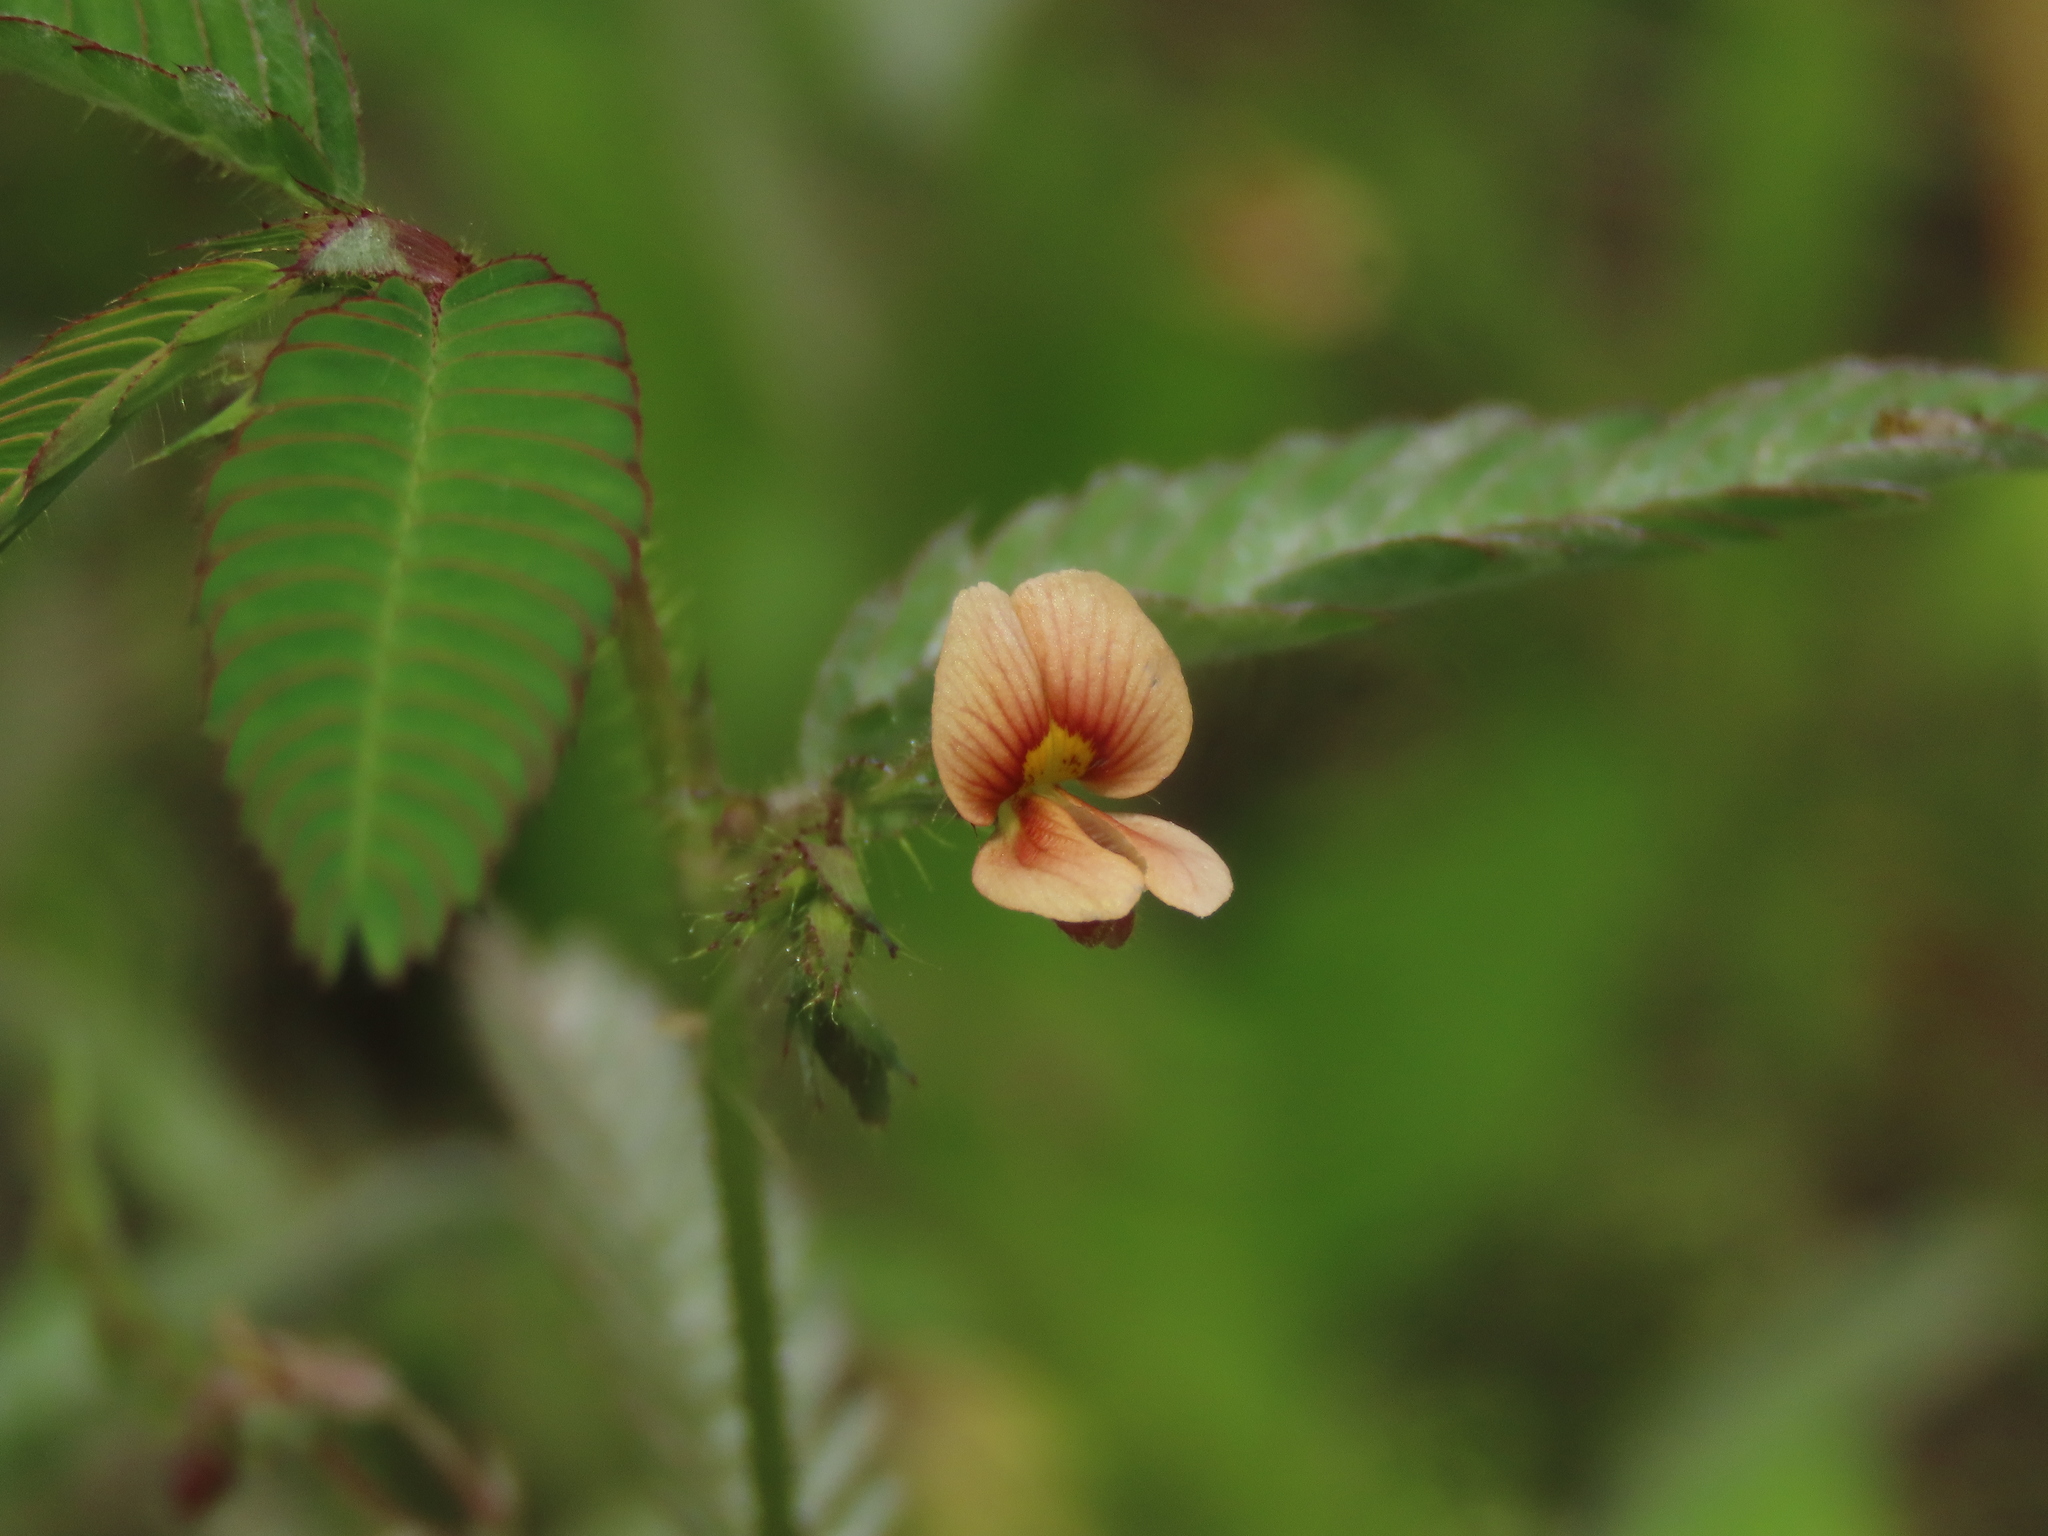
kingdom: Plantae
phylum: Tracheophyta
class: Magnoliopsida
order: Fabales
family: Fabaceae
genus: Aeschynomene
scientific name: Aeschynomene americana
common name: Joint-vetch
